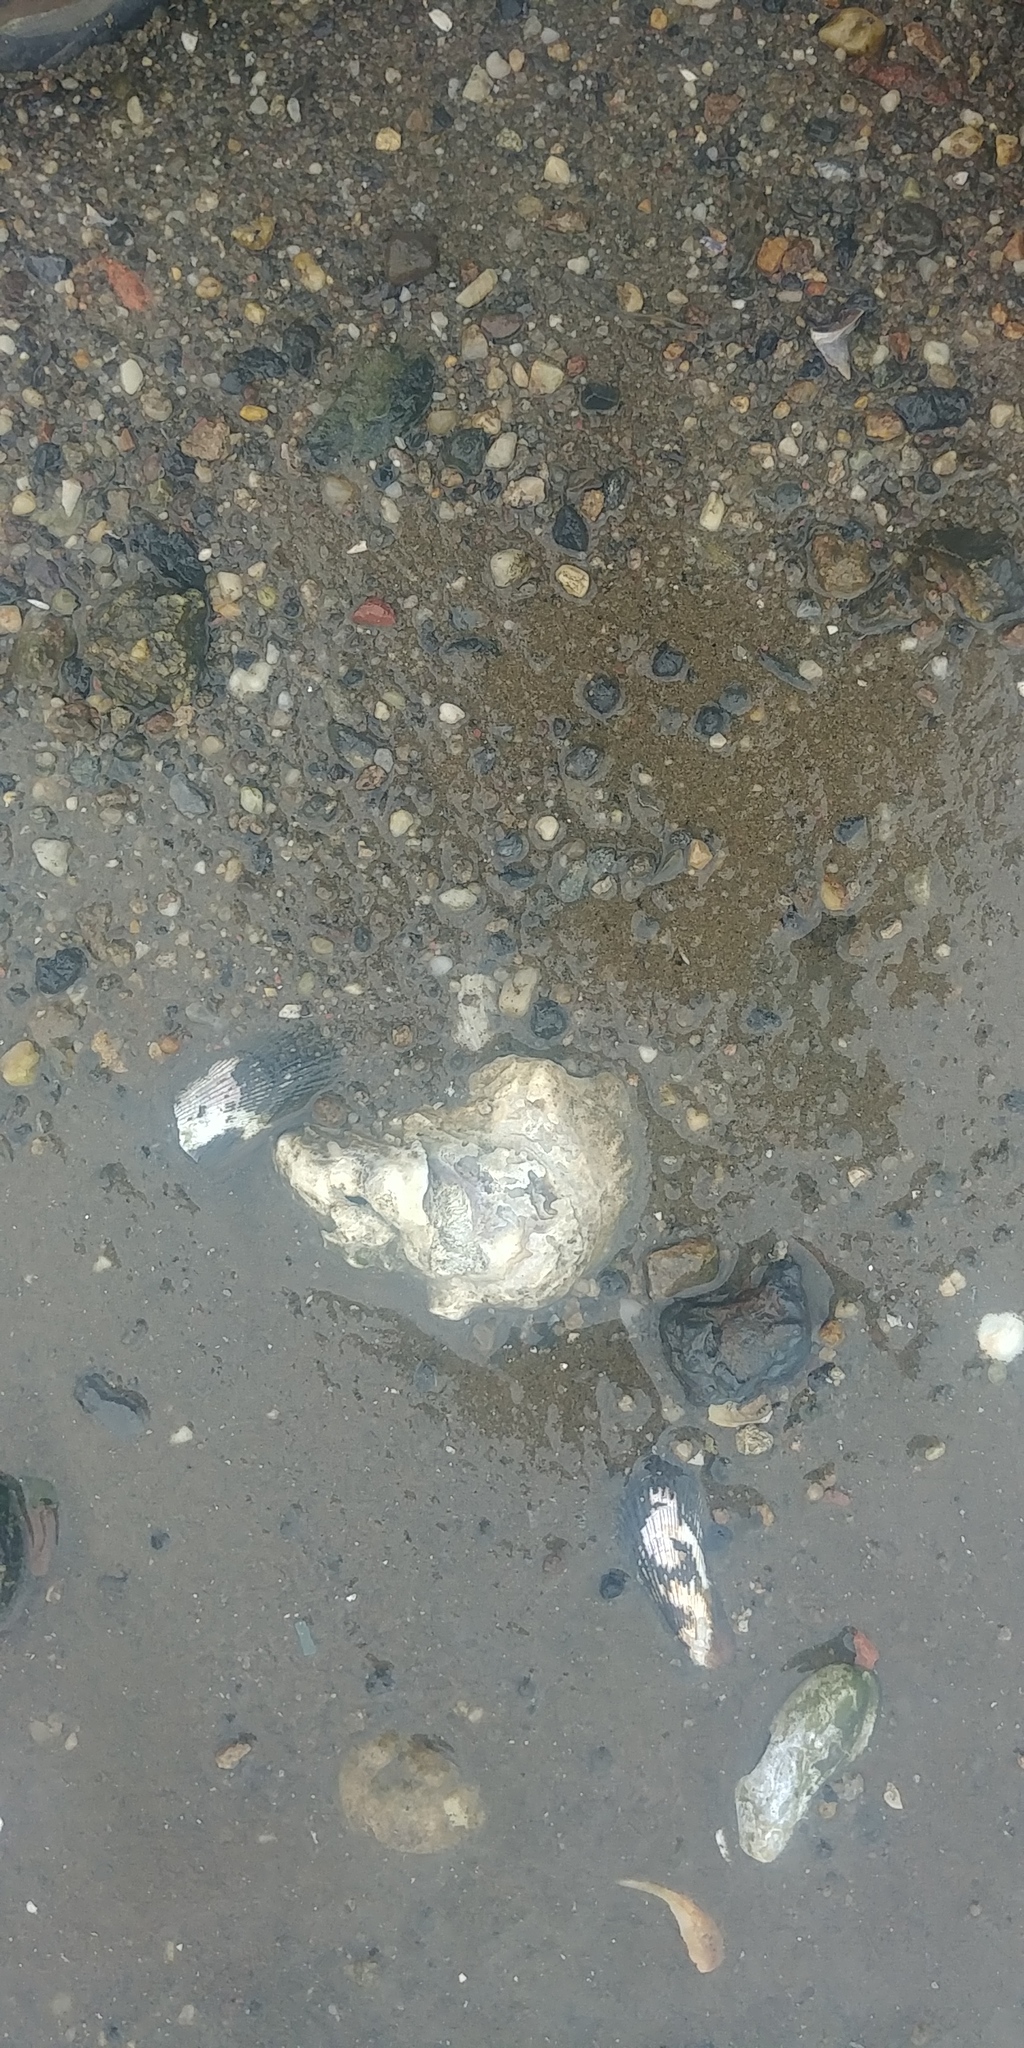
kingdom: Animalia
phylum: Mollusca
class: Bivalvia
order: Ostreida
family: Ostreidae
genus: Crassostrea
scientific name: Crassostrea virginica
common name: American oyster
